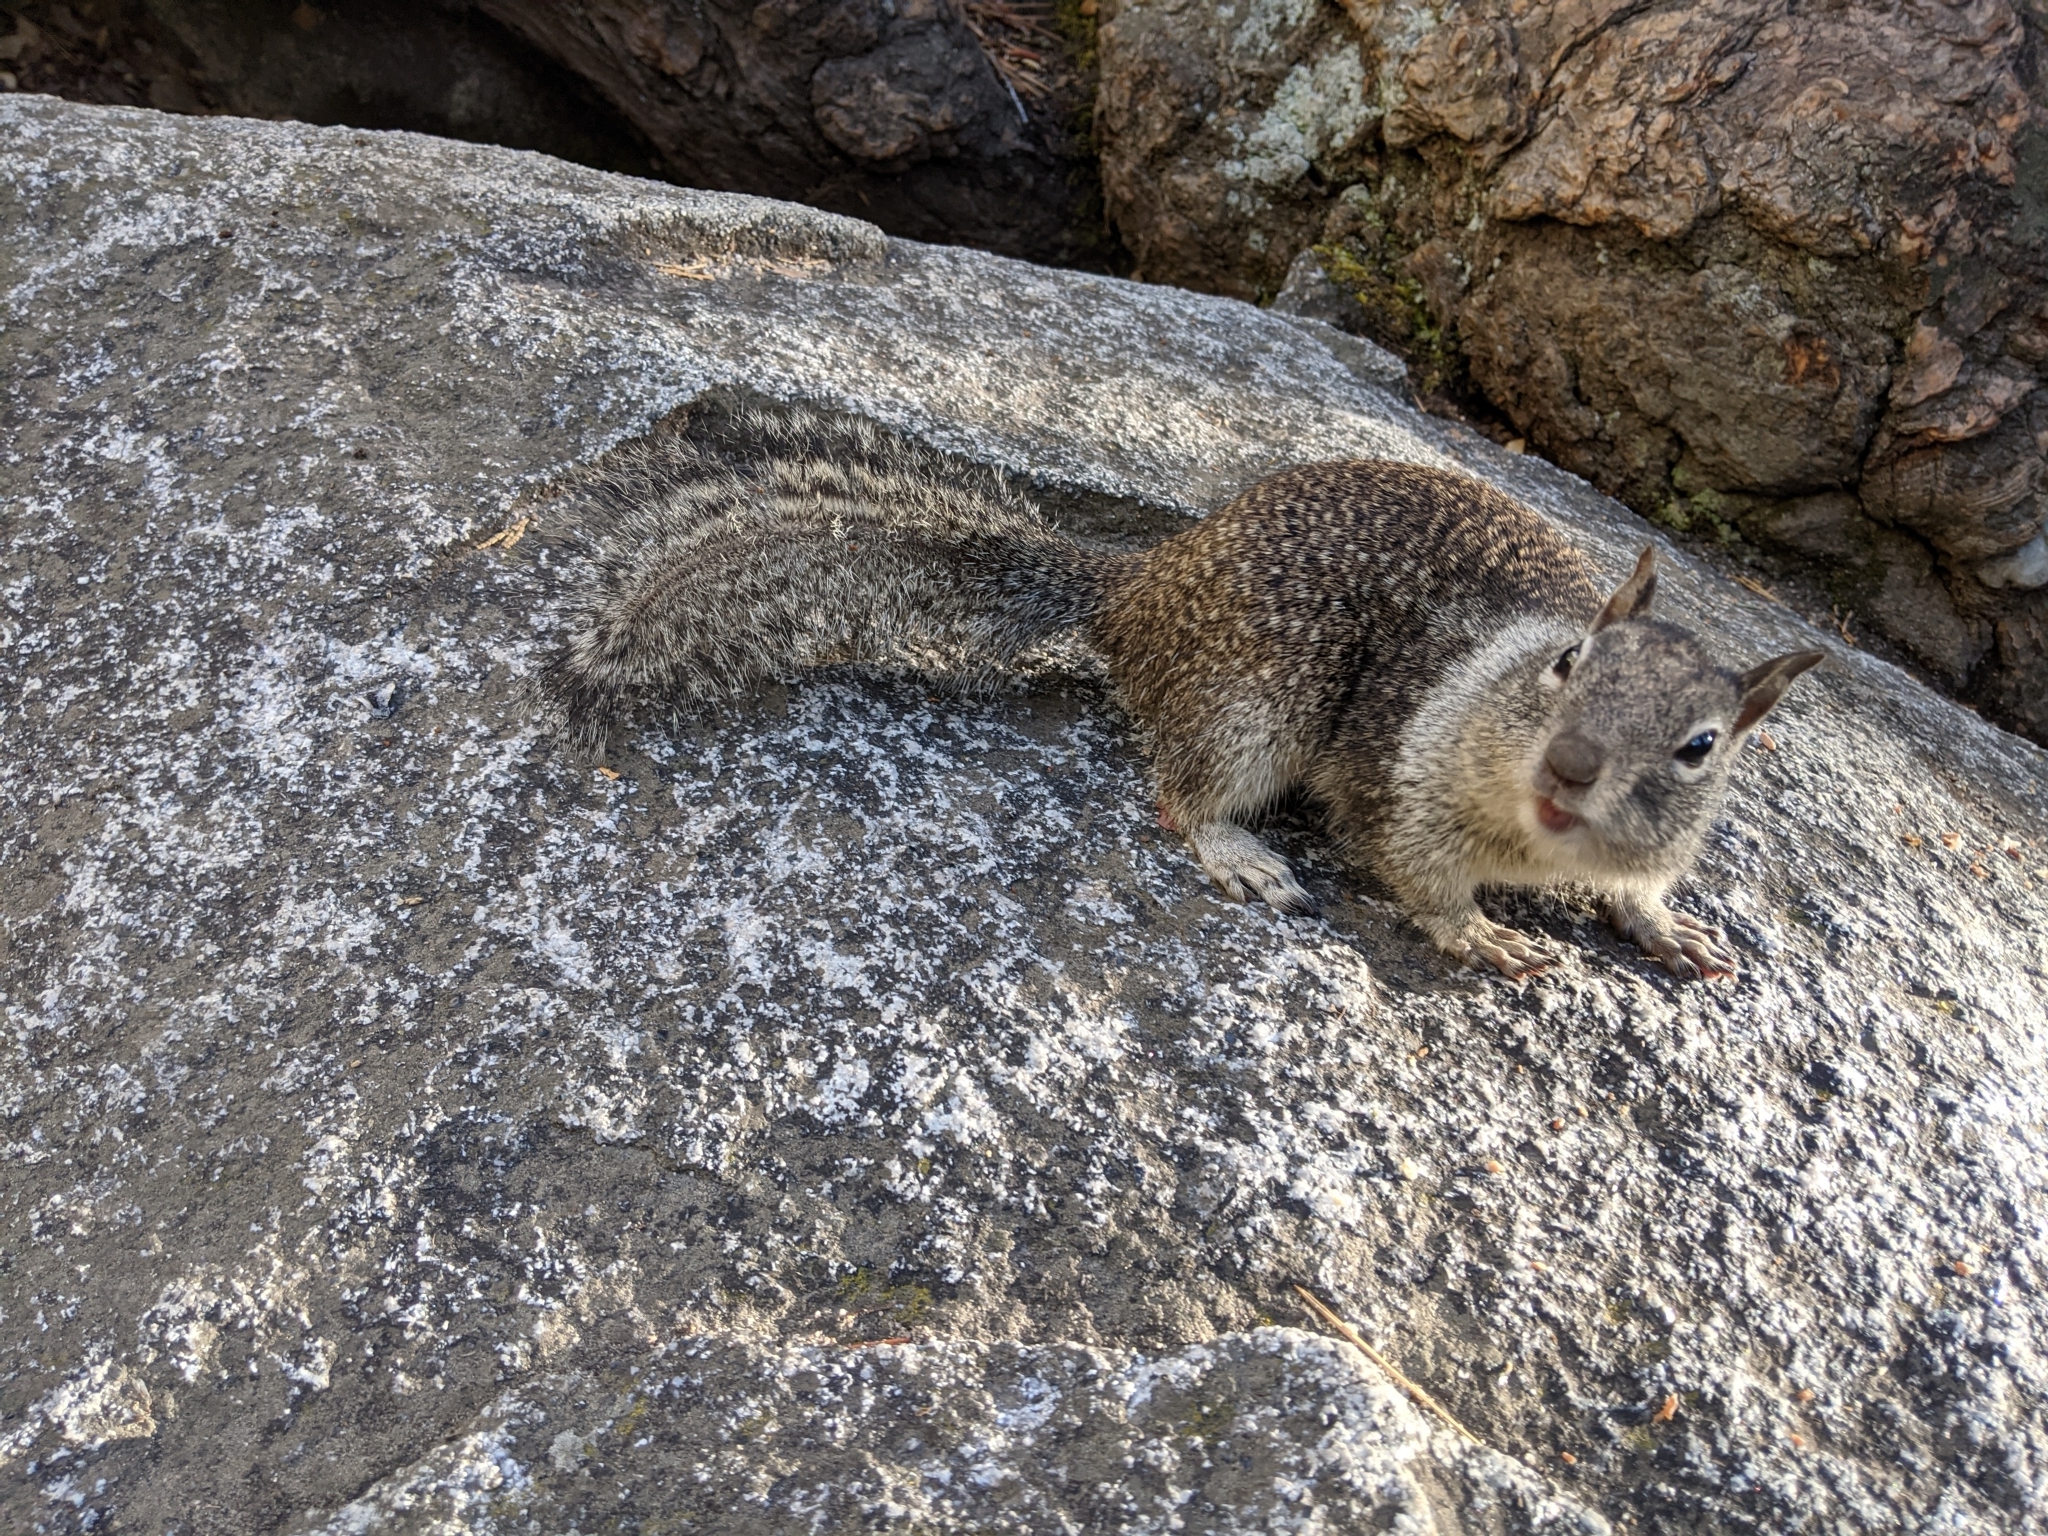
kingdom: Animalia
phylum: Chordata
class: Mammalia
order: Rodentia
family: Sciuridae
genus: Otospermophilus
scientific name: Otospermophilus beecheyi
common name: California ground squirrel
